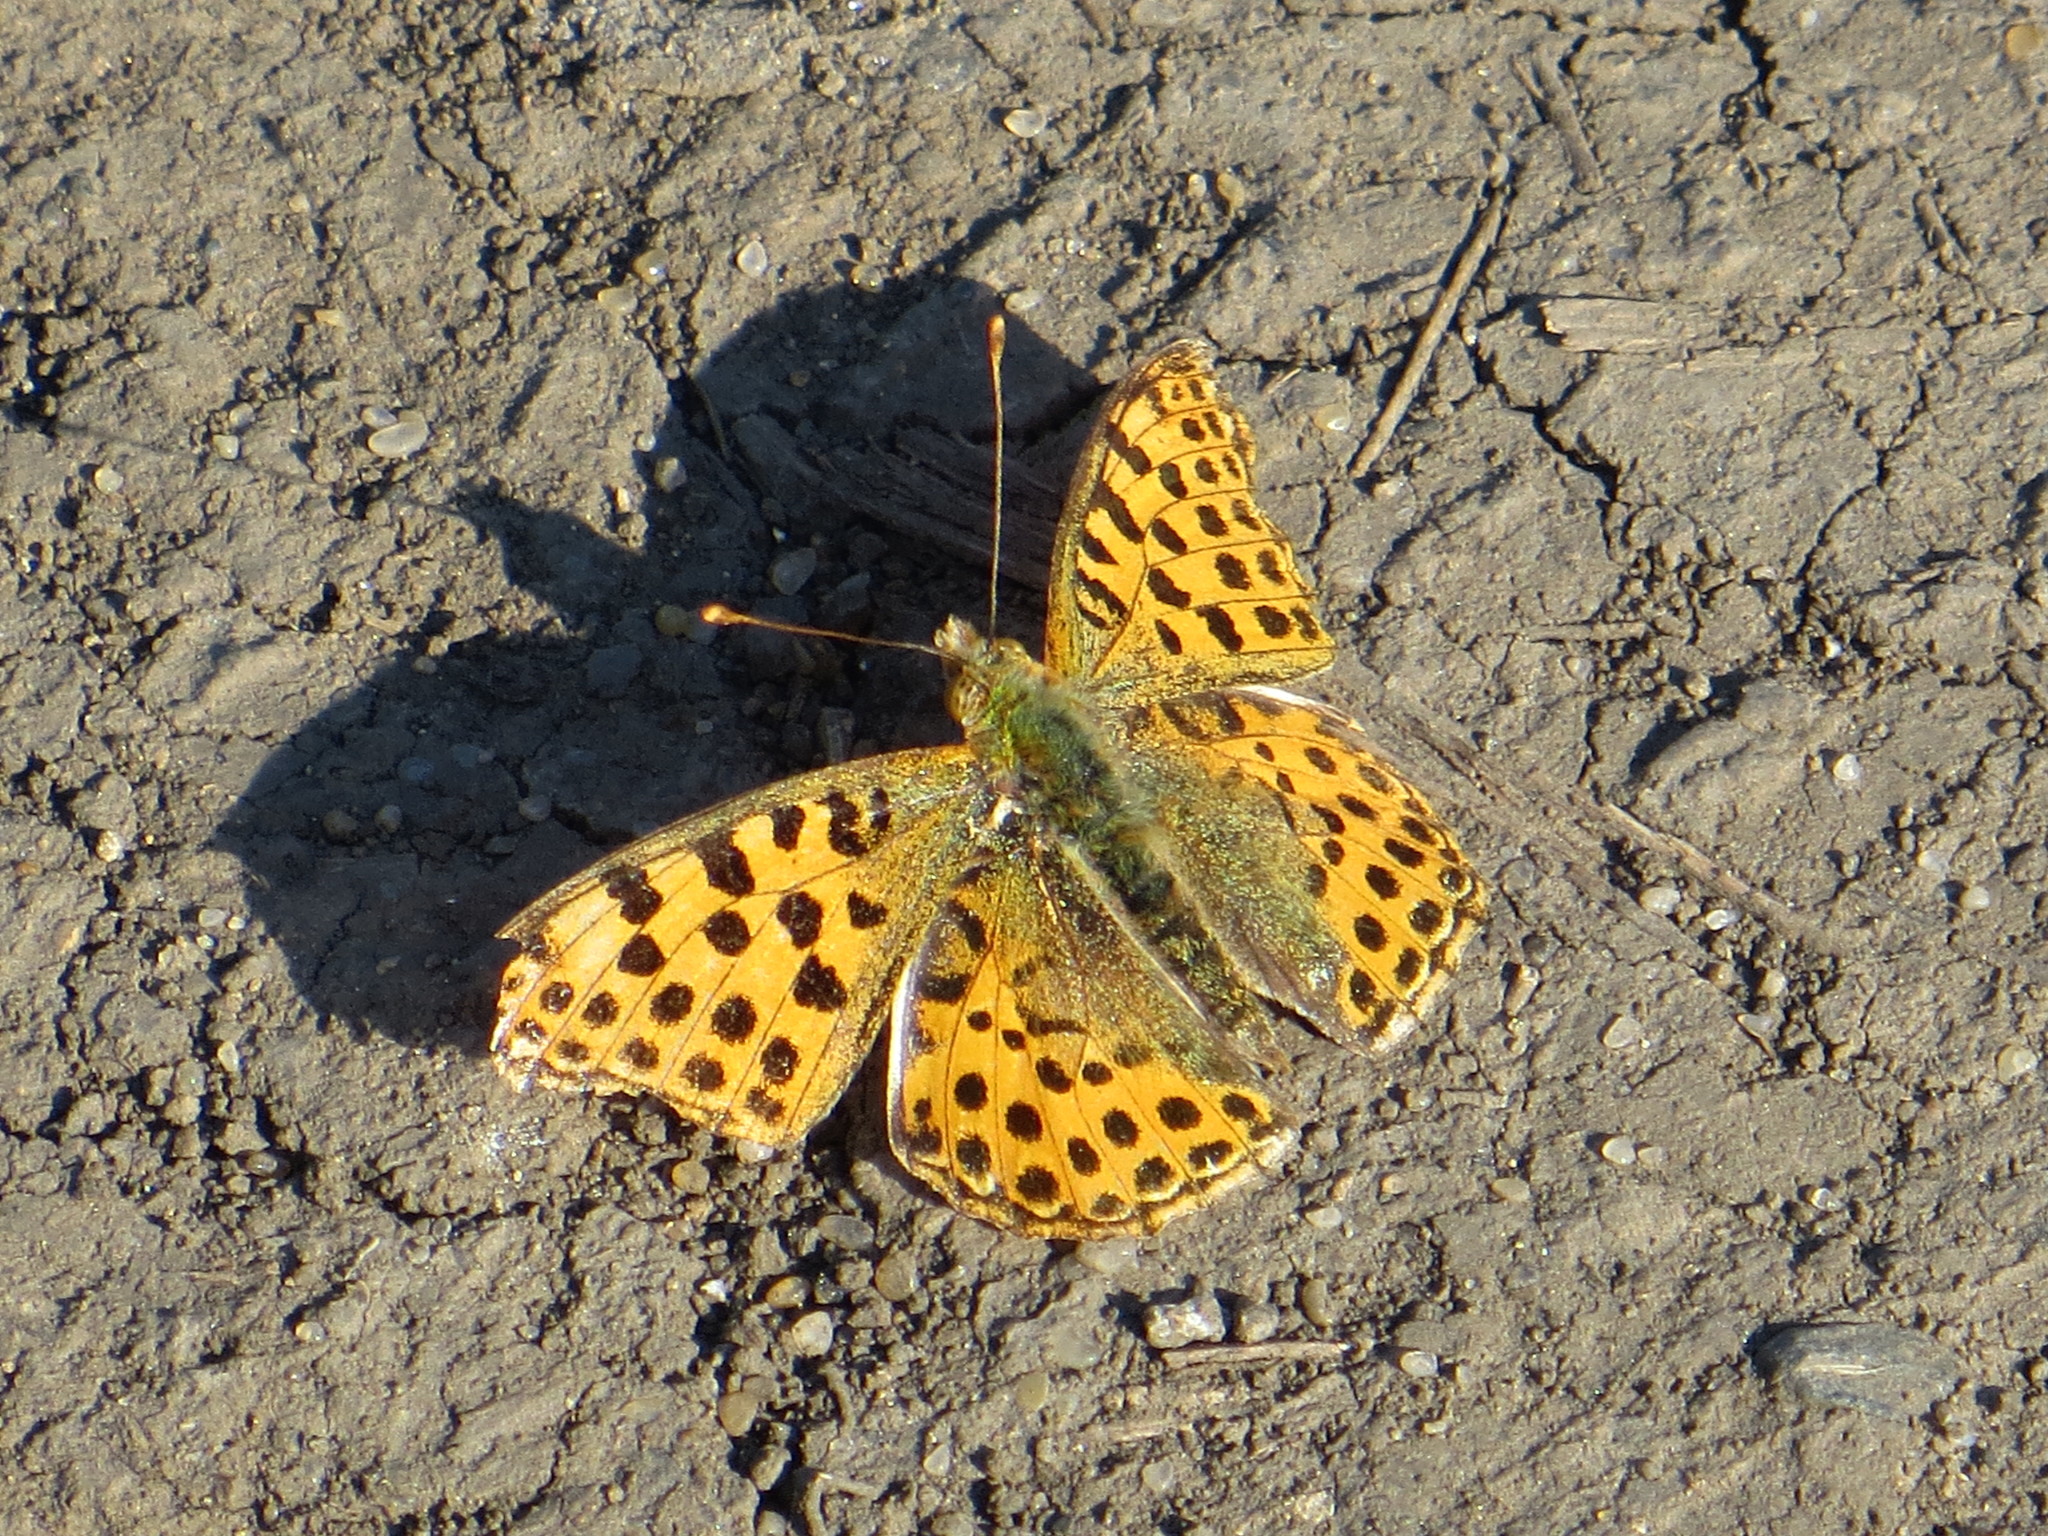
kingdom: Animalia
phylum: Arthropoda
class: Insecta
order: Lepidoptera
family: Nymphalidae
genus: Issoria
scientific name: Issoria lathonia
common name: Queen of spain fritillary
